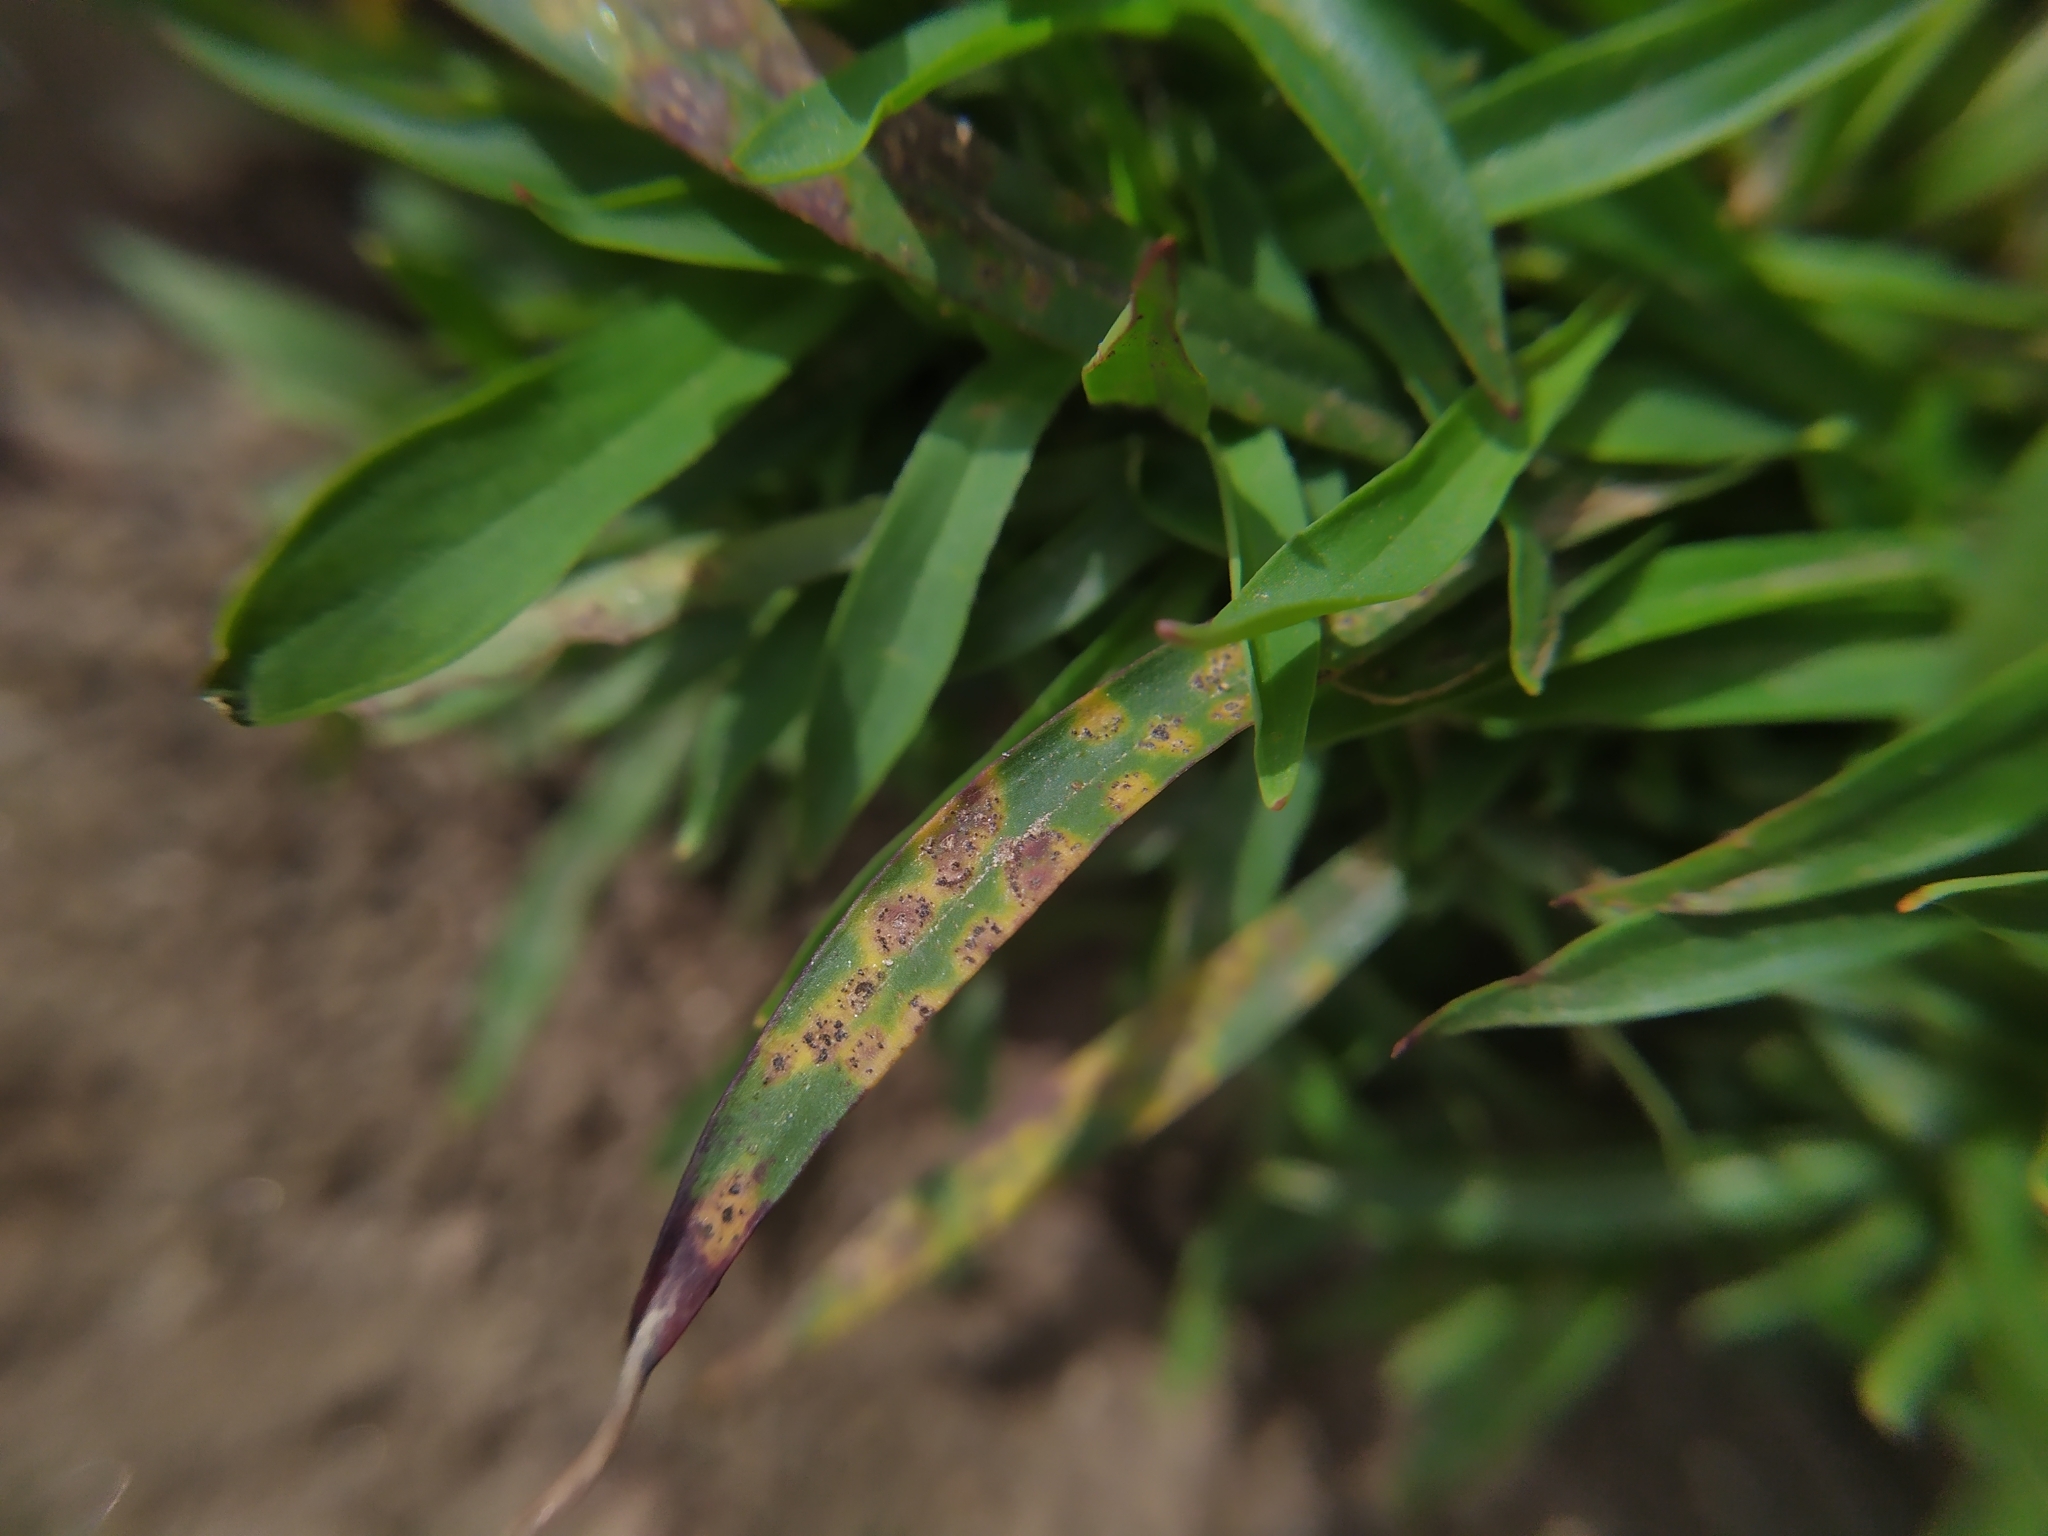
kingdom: Fungi
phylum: Basidiomycota
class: Pucciniomycetes
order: Pucciniales
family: Pucciniaceae
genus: Uromyces
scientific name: Uromyces cristatus
